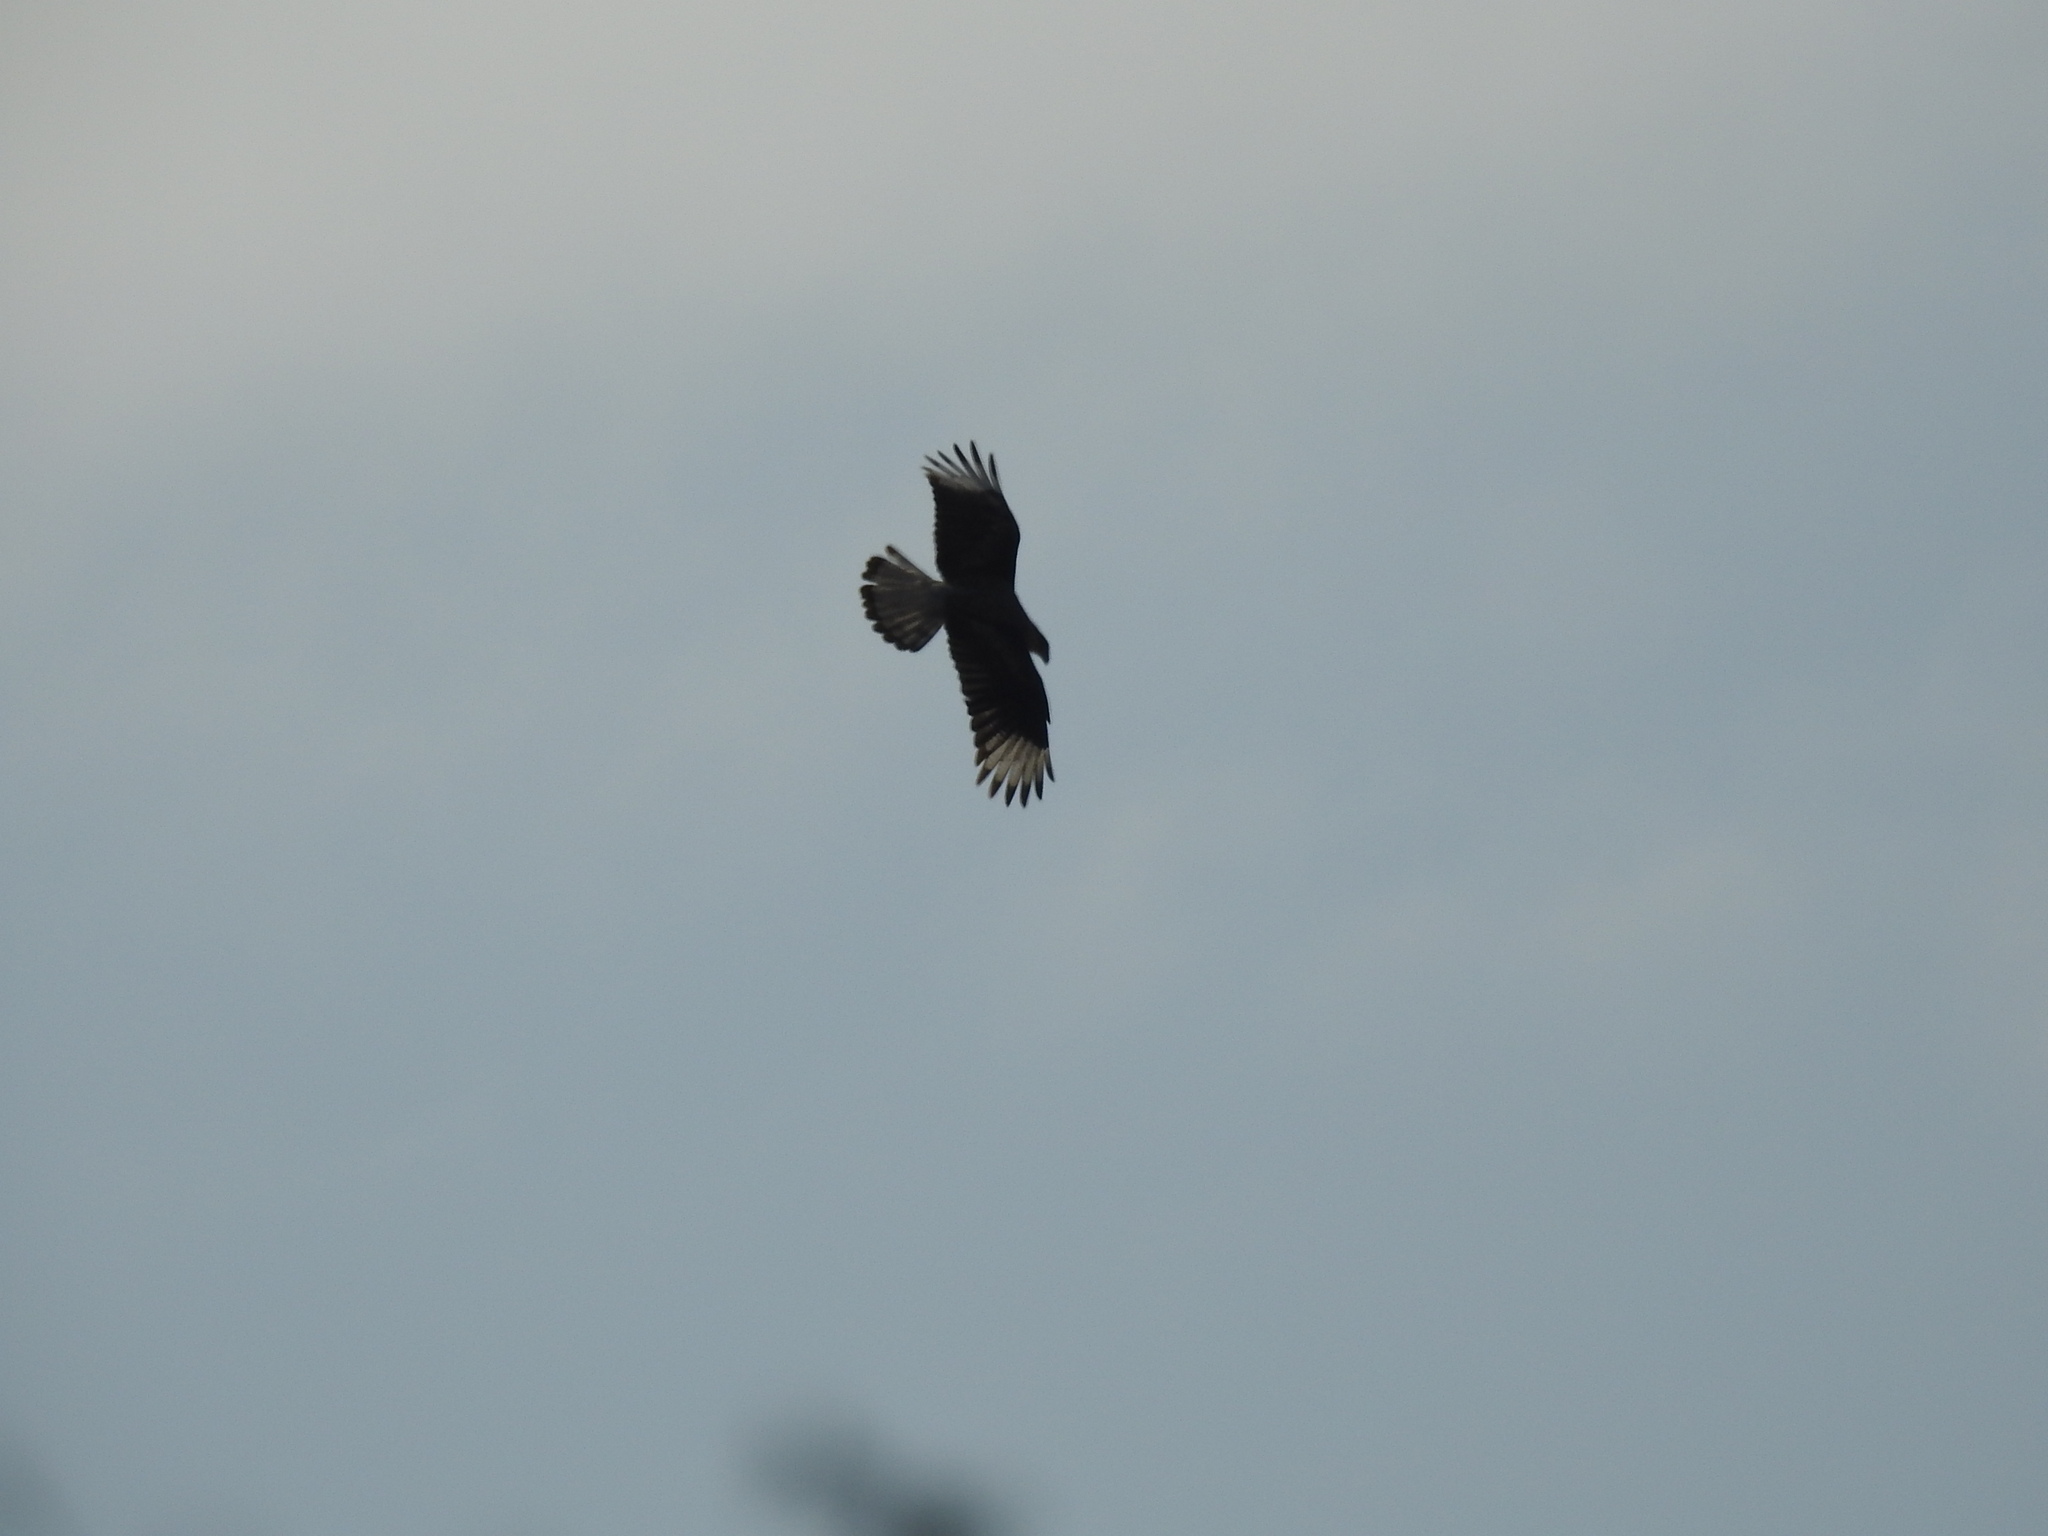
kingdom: Animalia
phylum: Chordata
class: Aves
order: Falconiformes
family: Falconidae
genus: Caracara
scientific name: Caracara plancus
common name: Southern caracara
